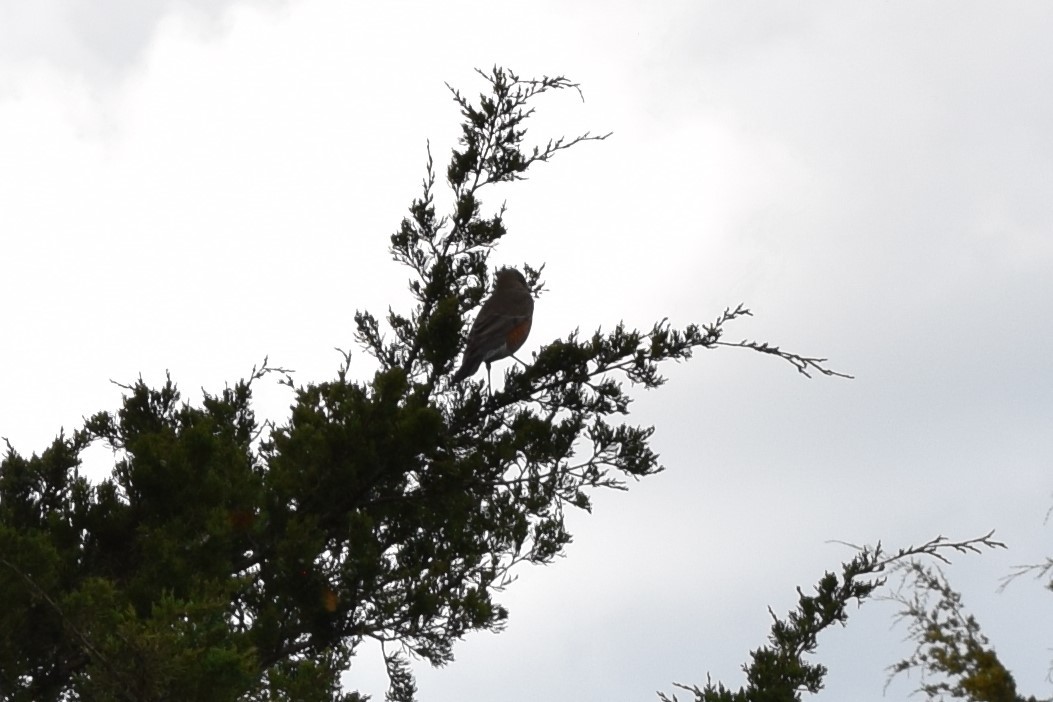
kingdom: Animalia
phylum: Chordata
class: Aves
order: Passeriformes
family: Turdidae
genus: Turdus
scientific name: Turdus migratorius
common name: American robin
